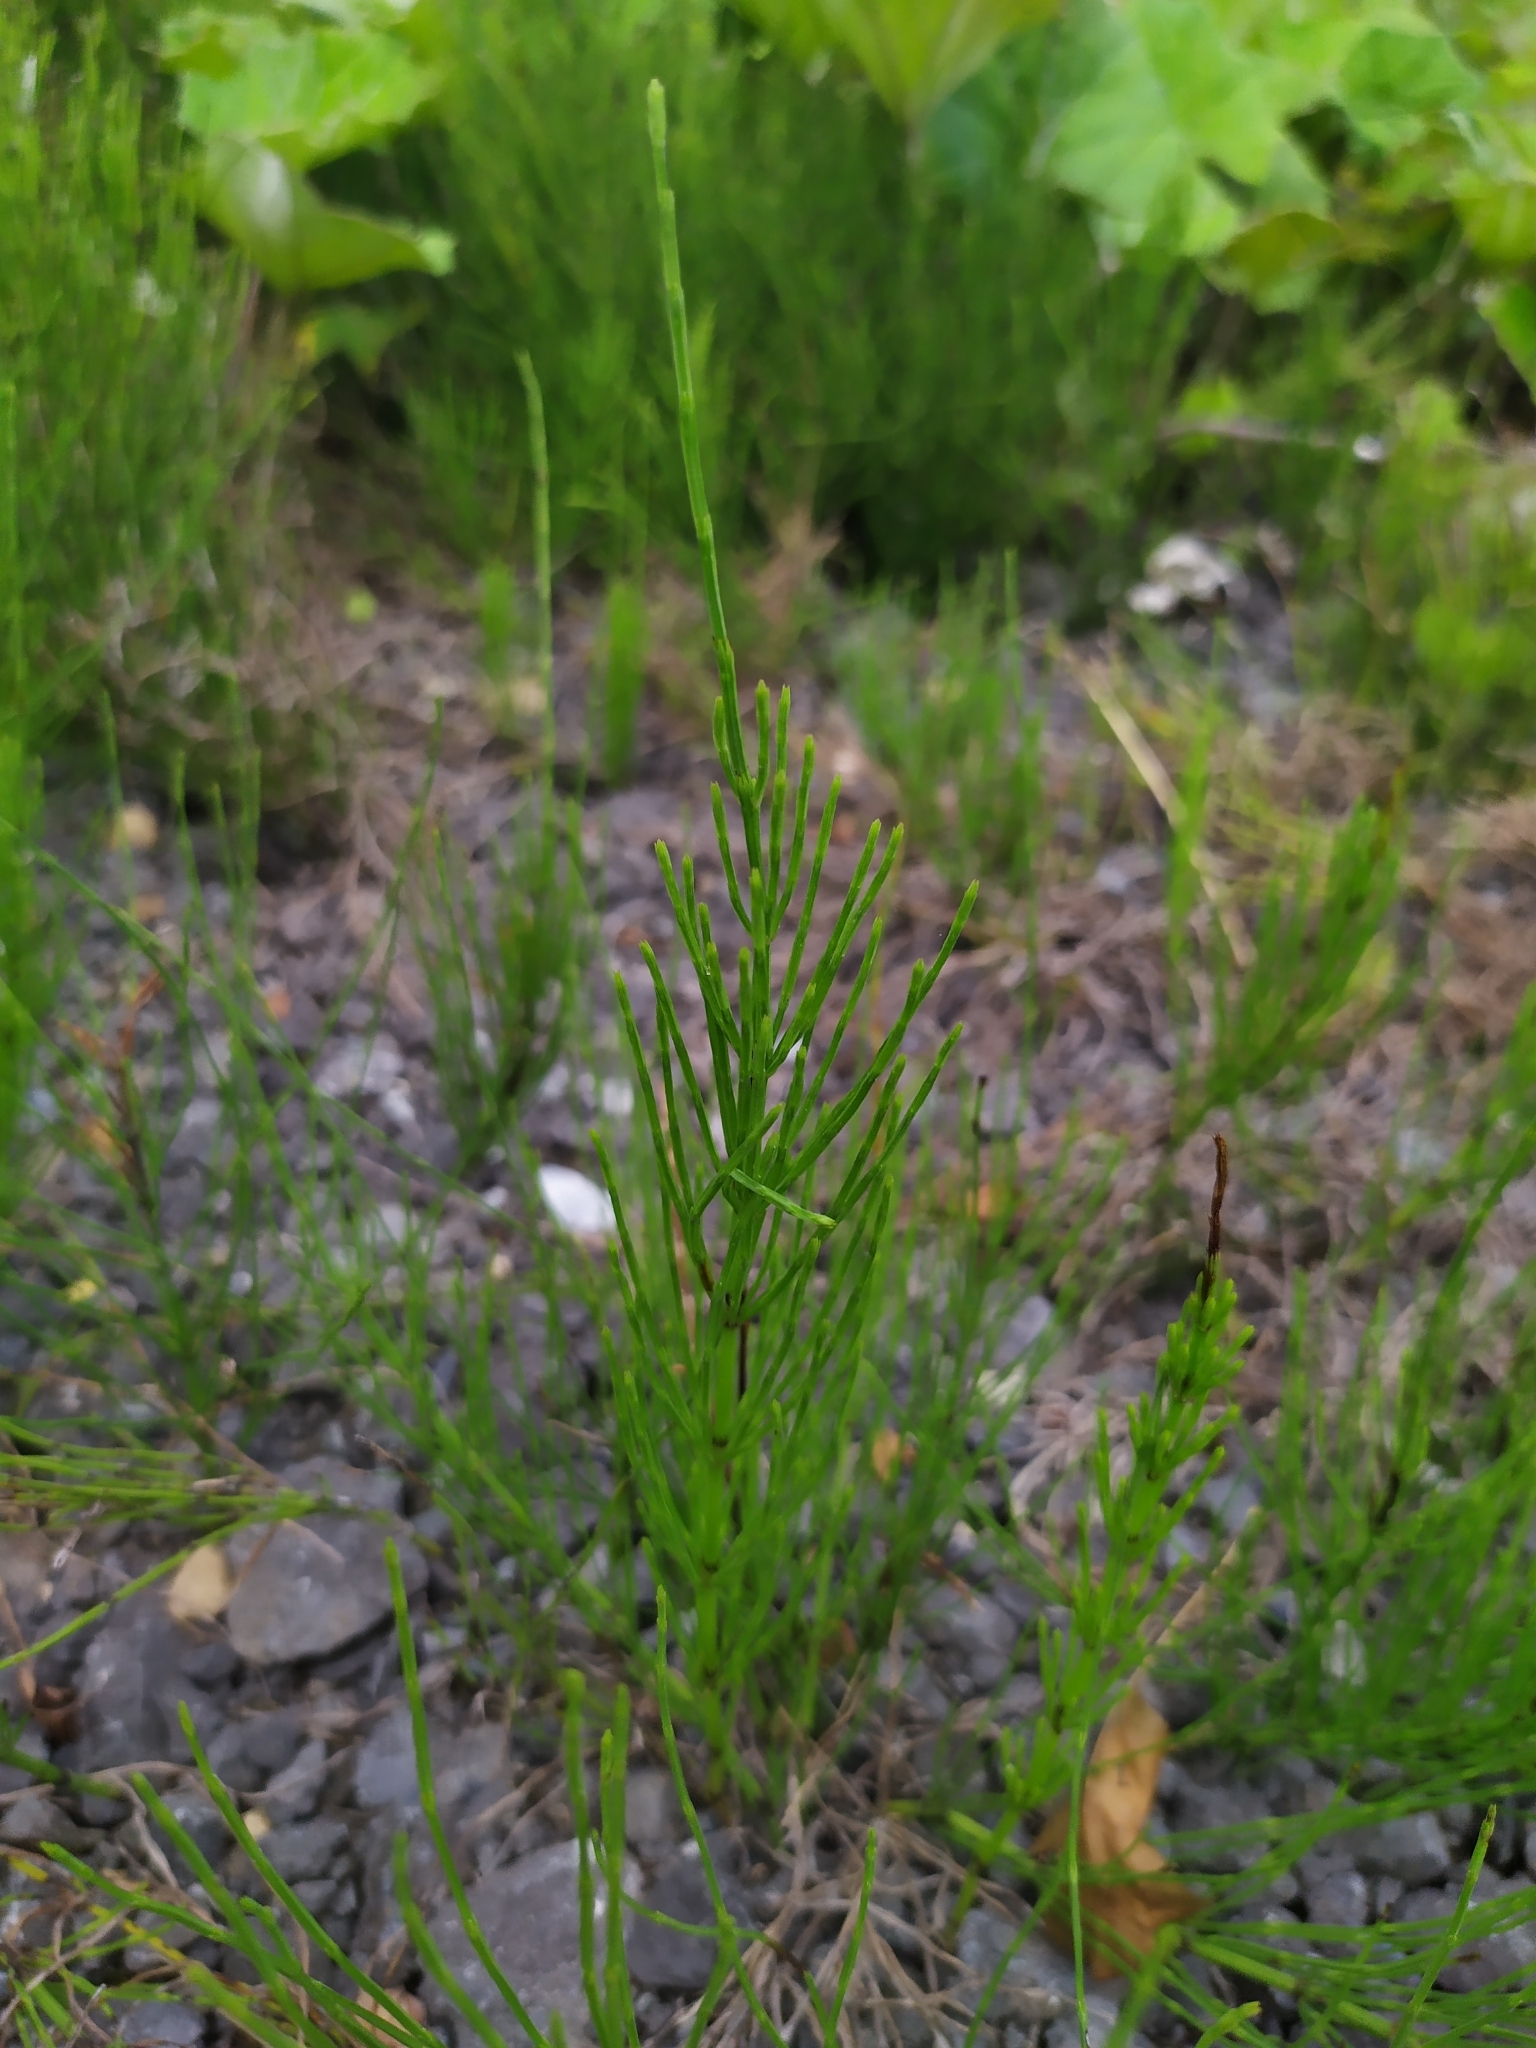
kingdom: Plantae
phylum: Tracheophyta
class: Polypodiopsida
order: Equisetales
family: Equisetaceae
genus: Equisetum
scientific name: Equisetum arvense
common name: Field horsetail
